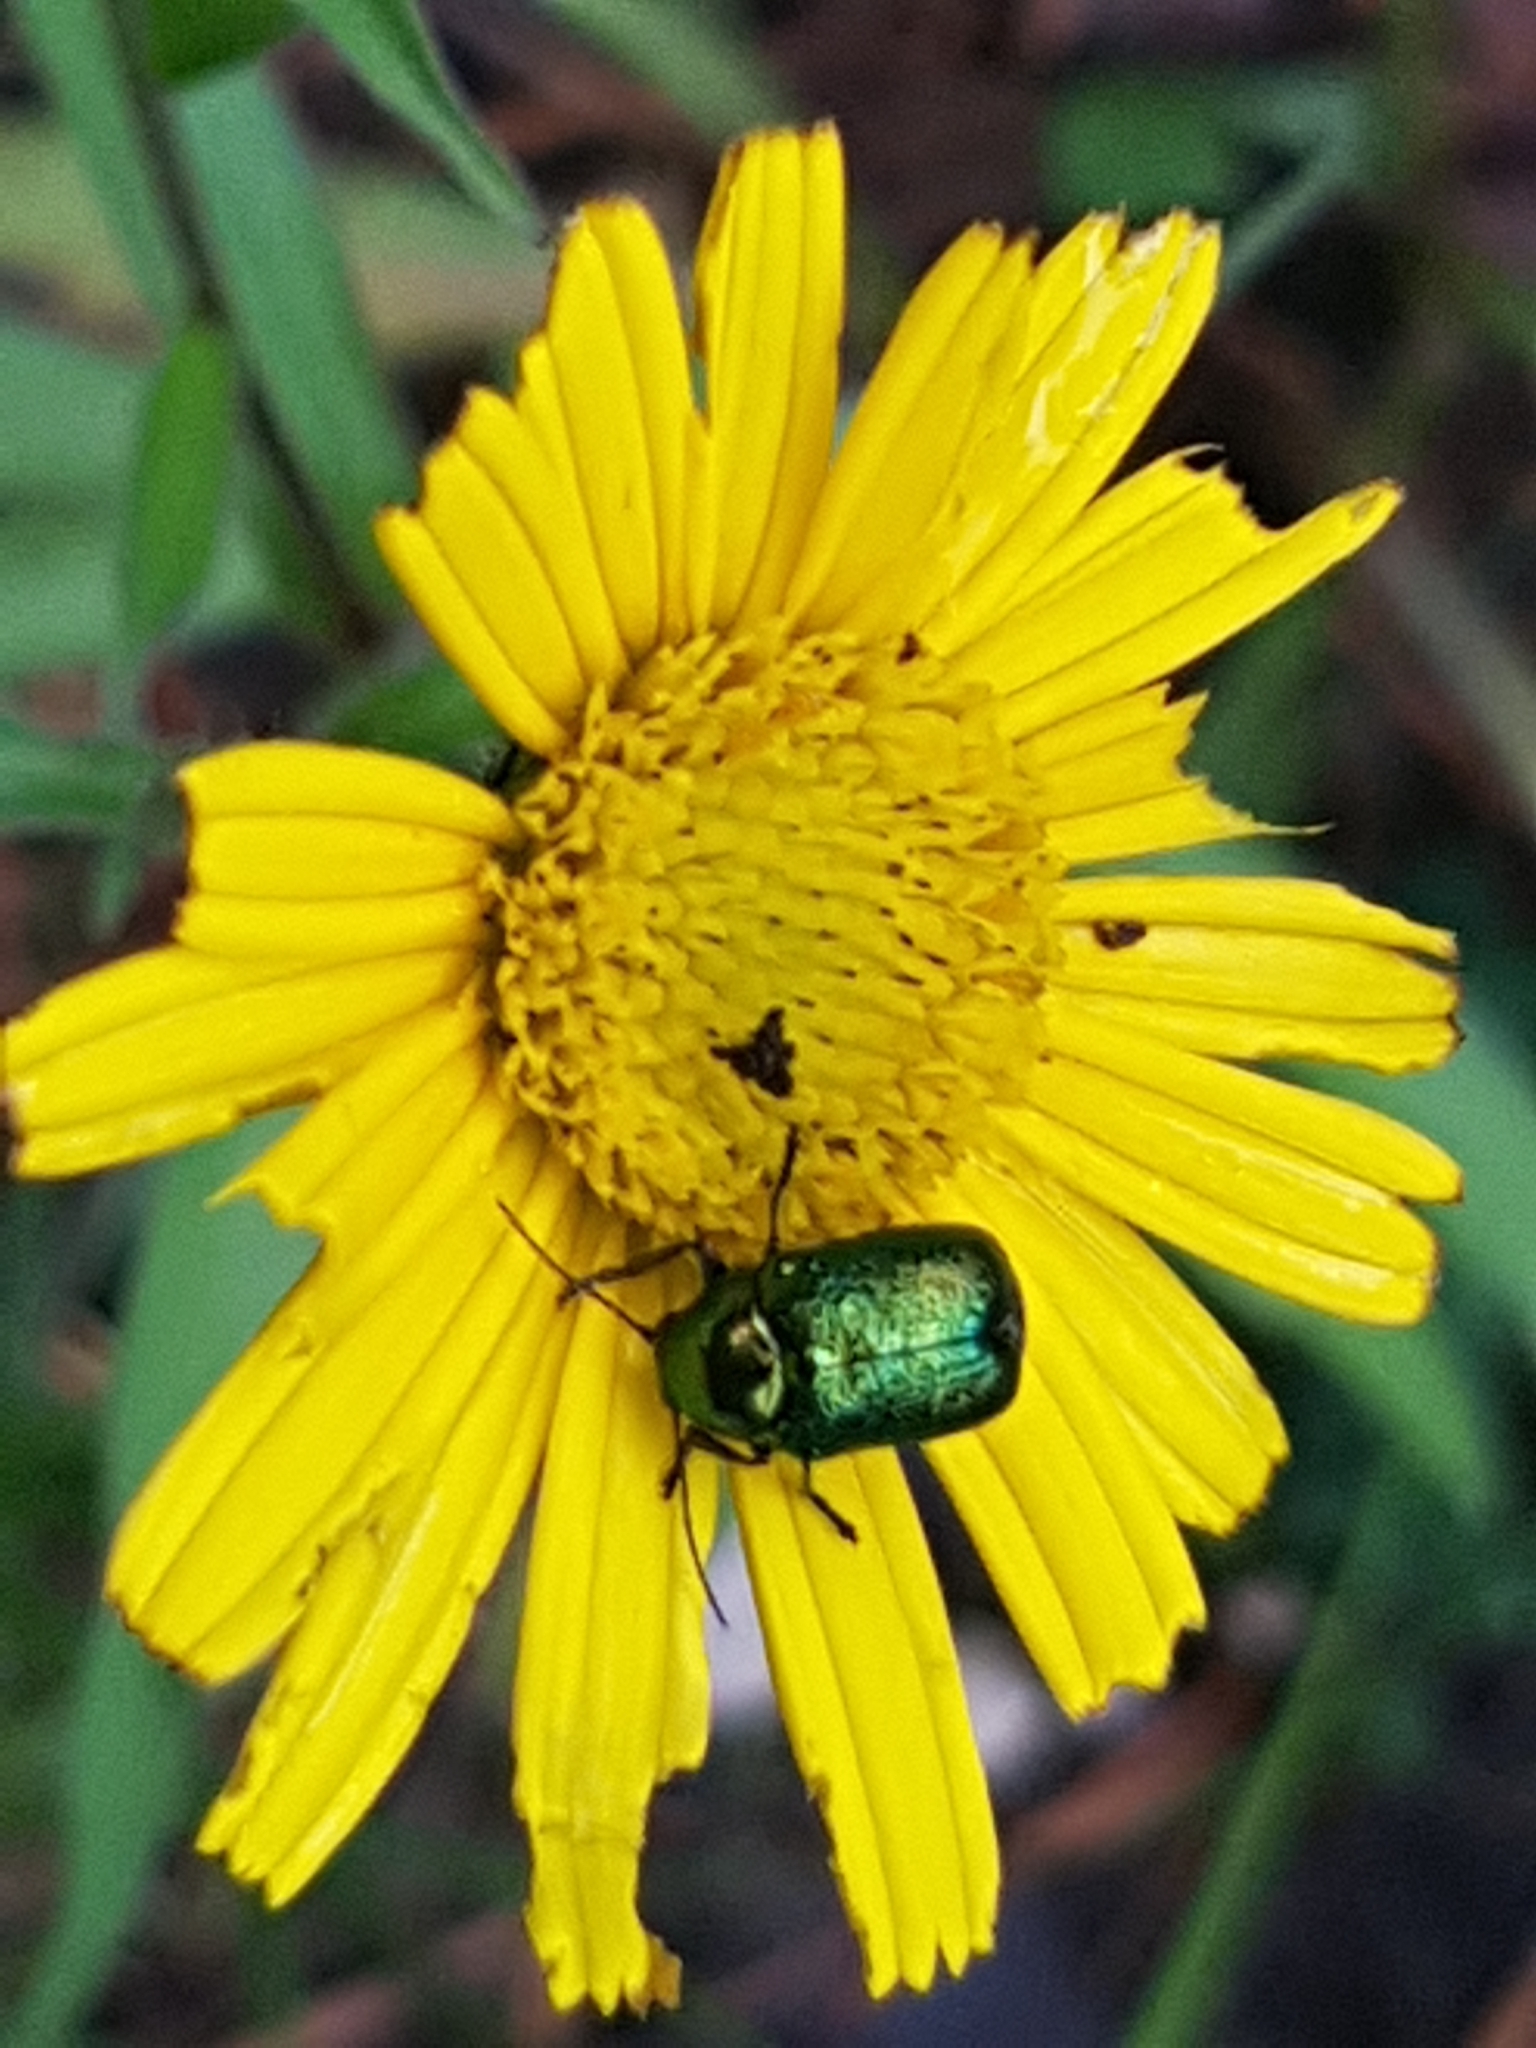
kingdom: Plantae
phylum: Tracheophyta
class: Magnoliopsida
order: Asterales
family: Asteraceae
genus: Buphthalmum
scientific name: Buphthalmum salicifolium
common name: Willow-leaved yellow-oxeye
